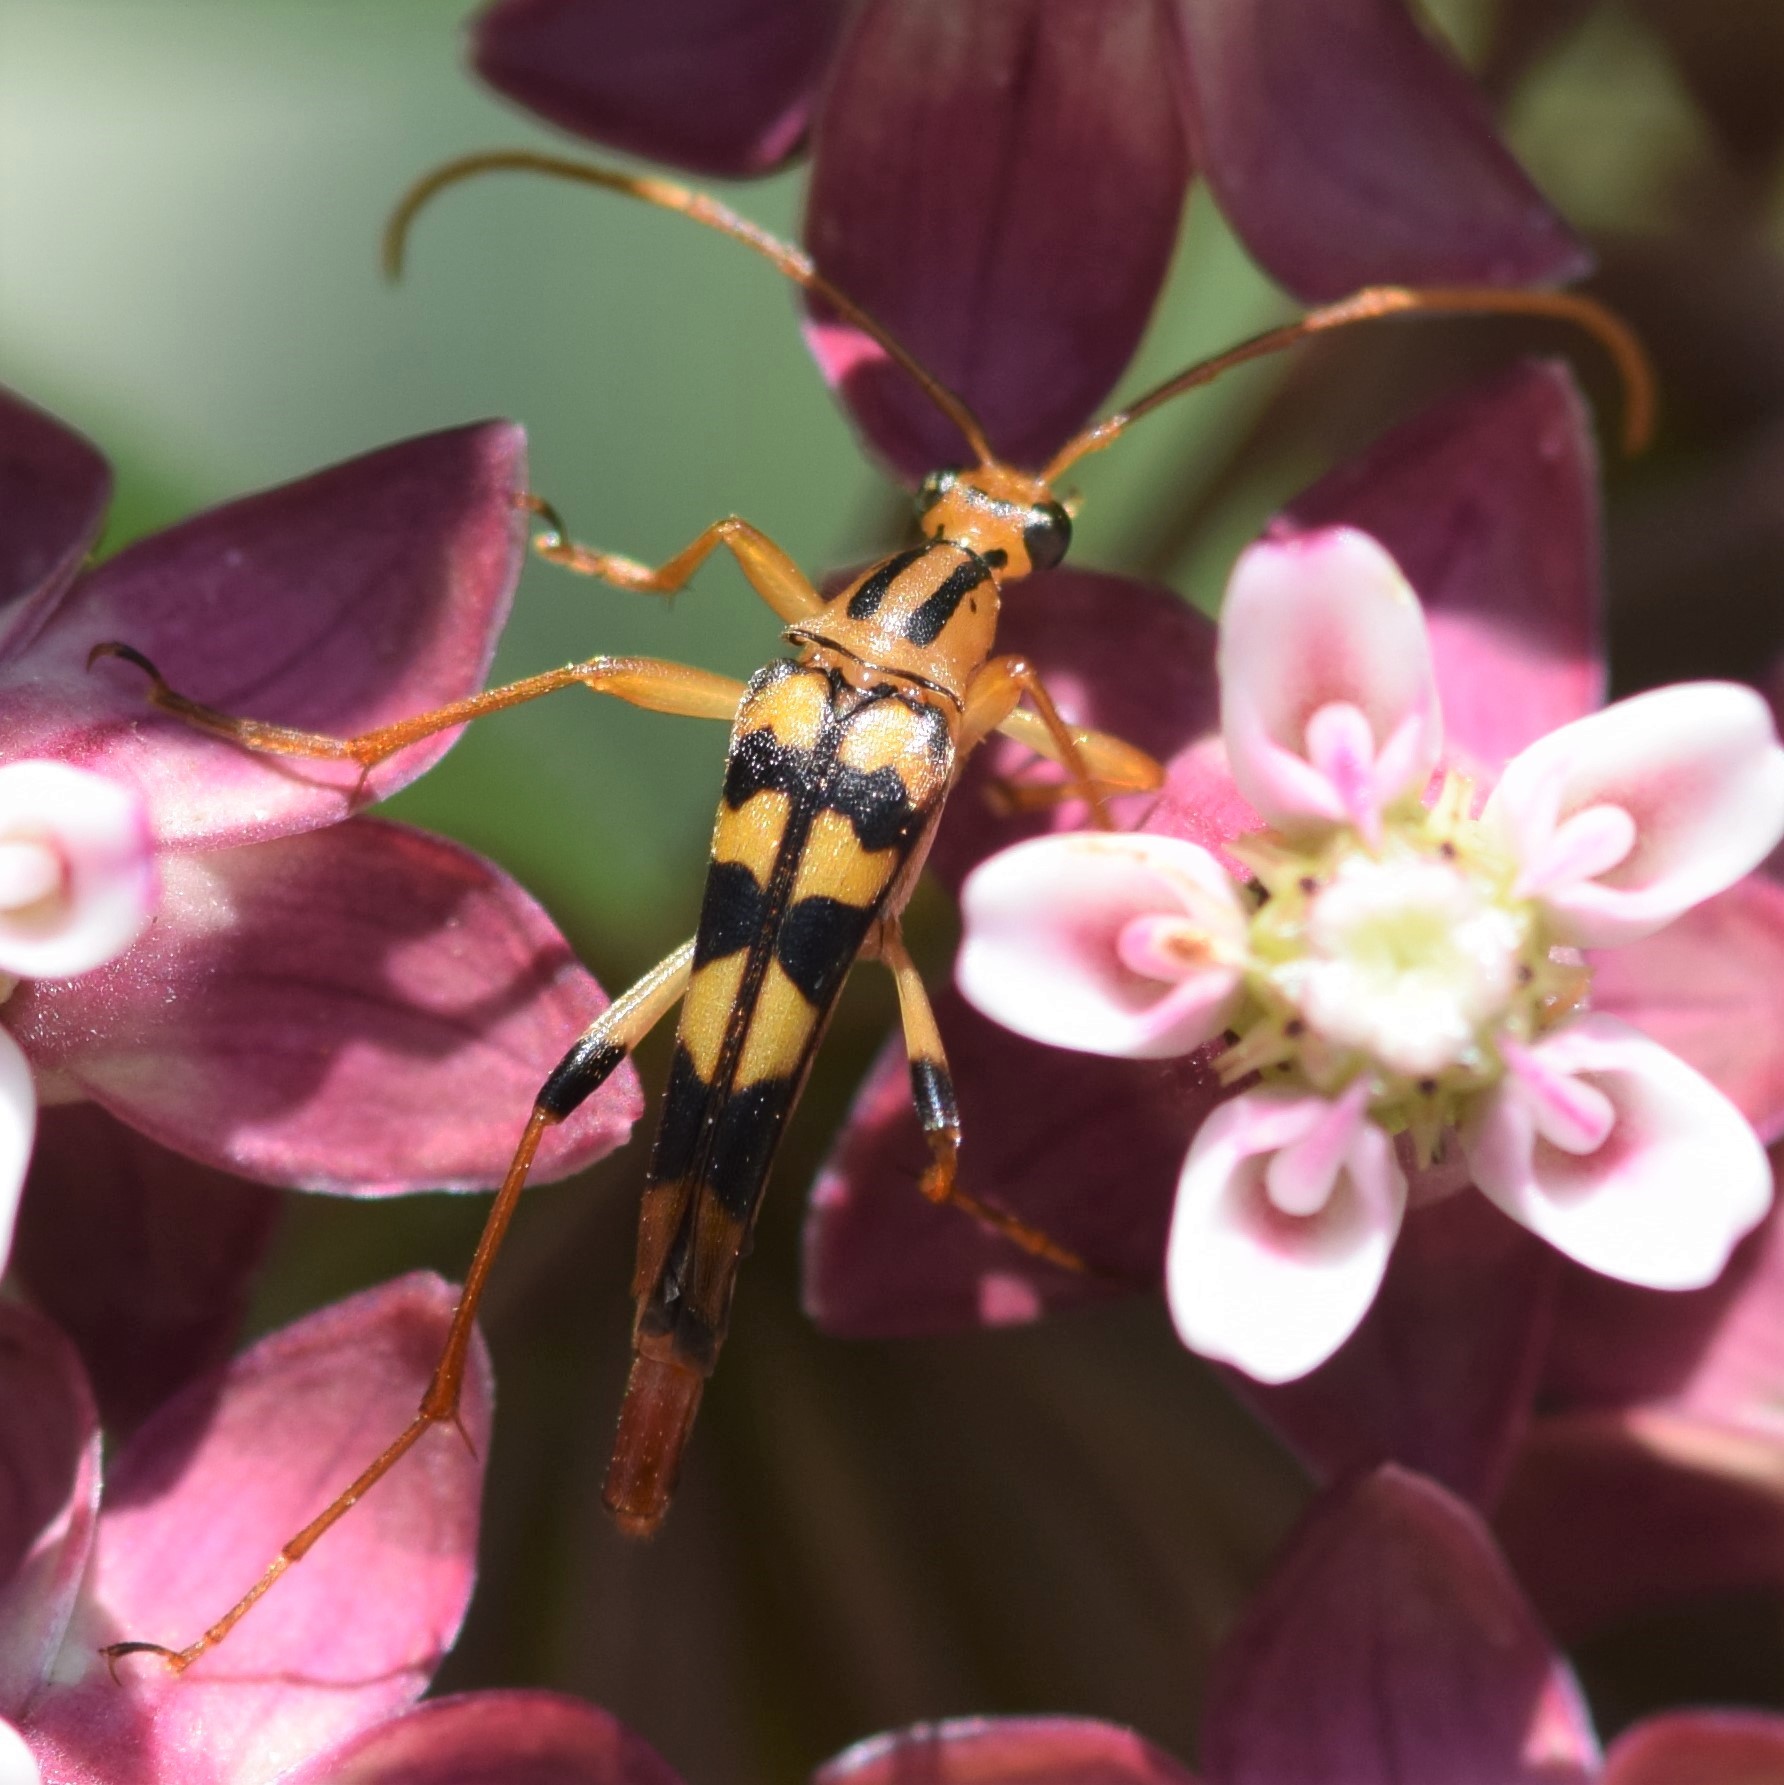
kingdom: Animalia
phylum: Arthropoda
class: Insecta
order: Coleoptera
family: Cerambycidae
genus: Strangalia
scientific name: Strangalia luteicornis
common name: Yellow-horned flower longhorn beetle
